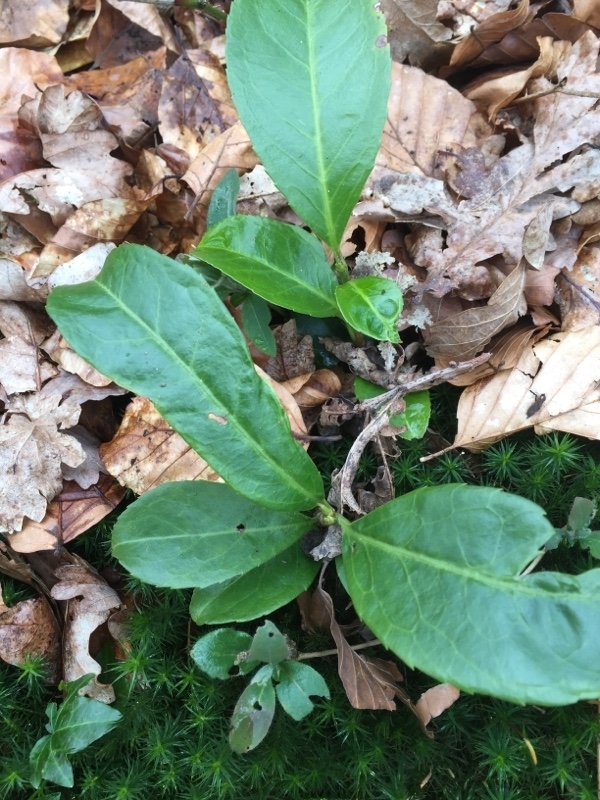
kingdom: Plantae
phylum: Tracheophyta
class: Magnoliopsida
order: Rosales
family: Rosaceae
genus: Prunus
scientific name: Prunus laurocerasus
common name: Cherry laurel
